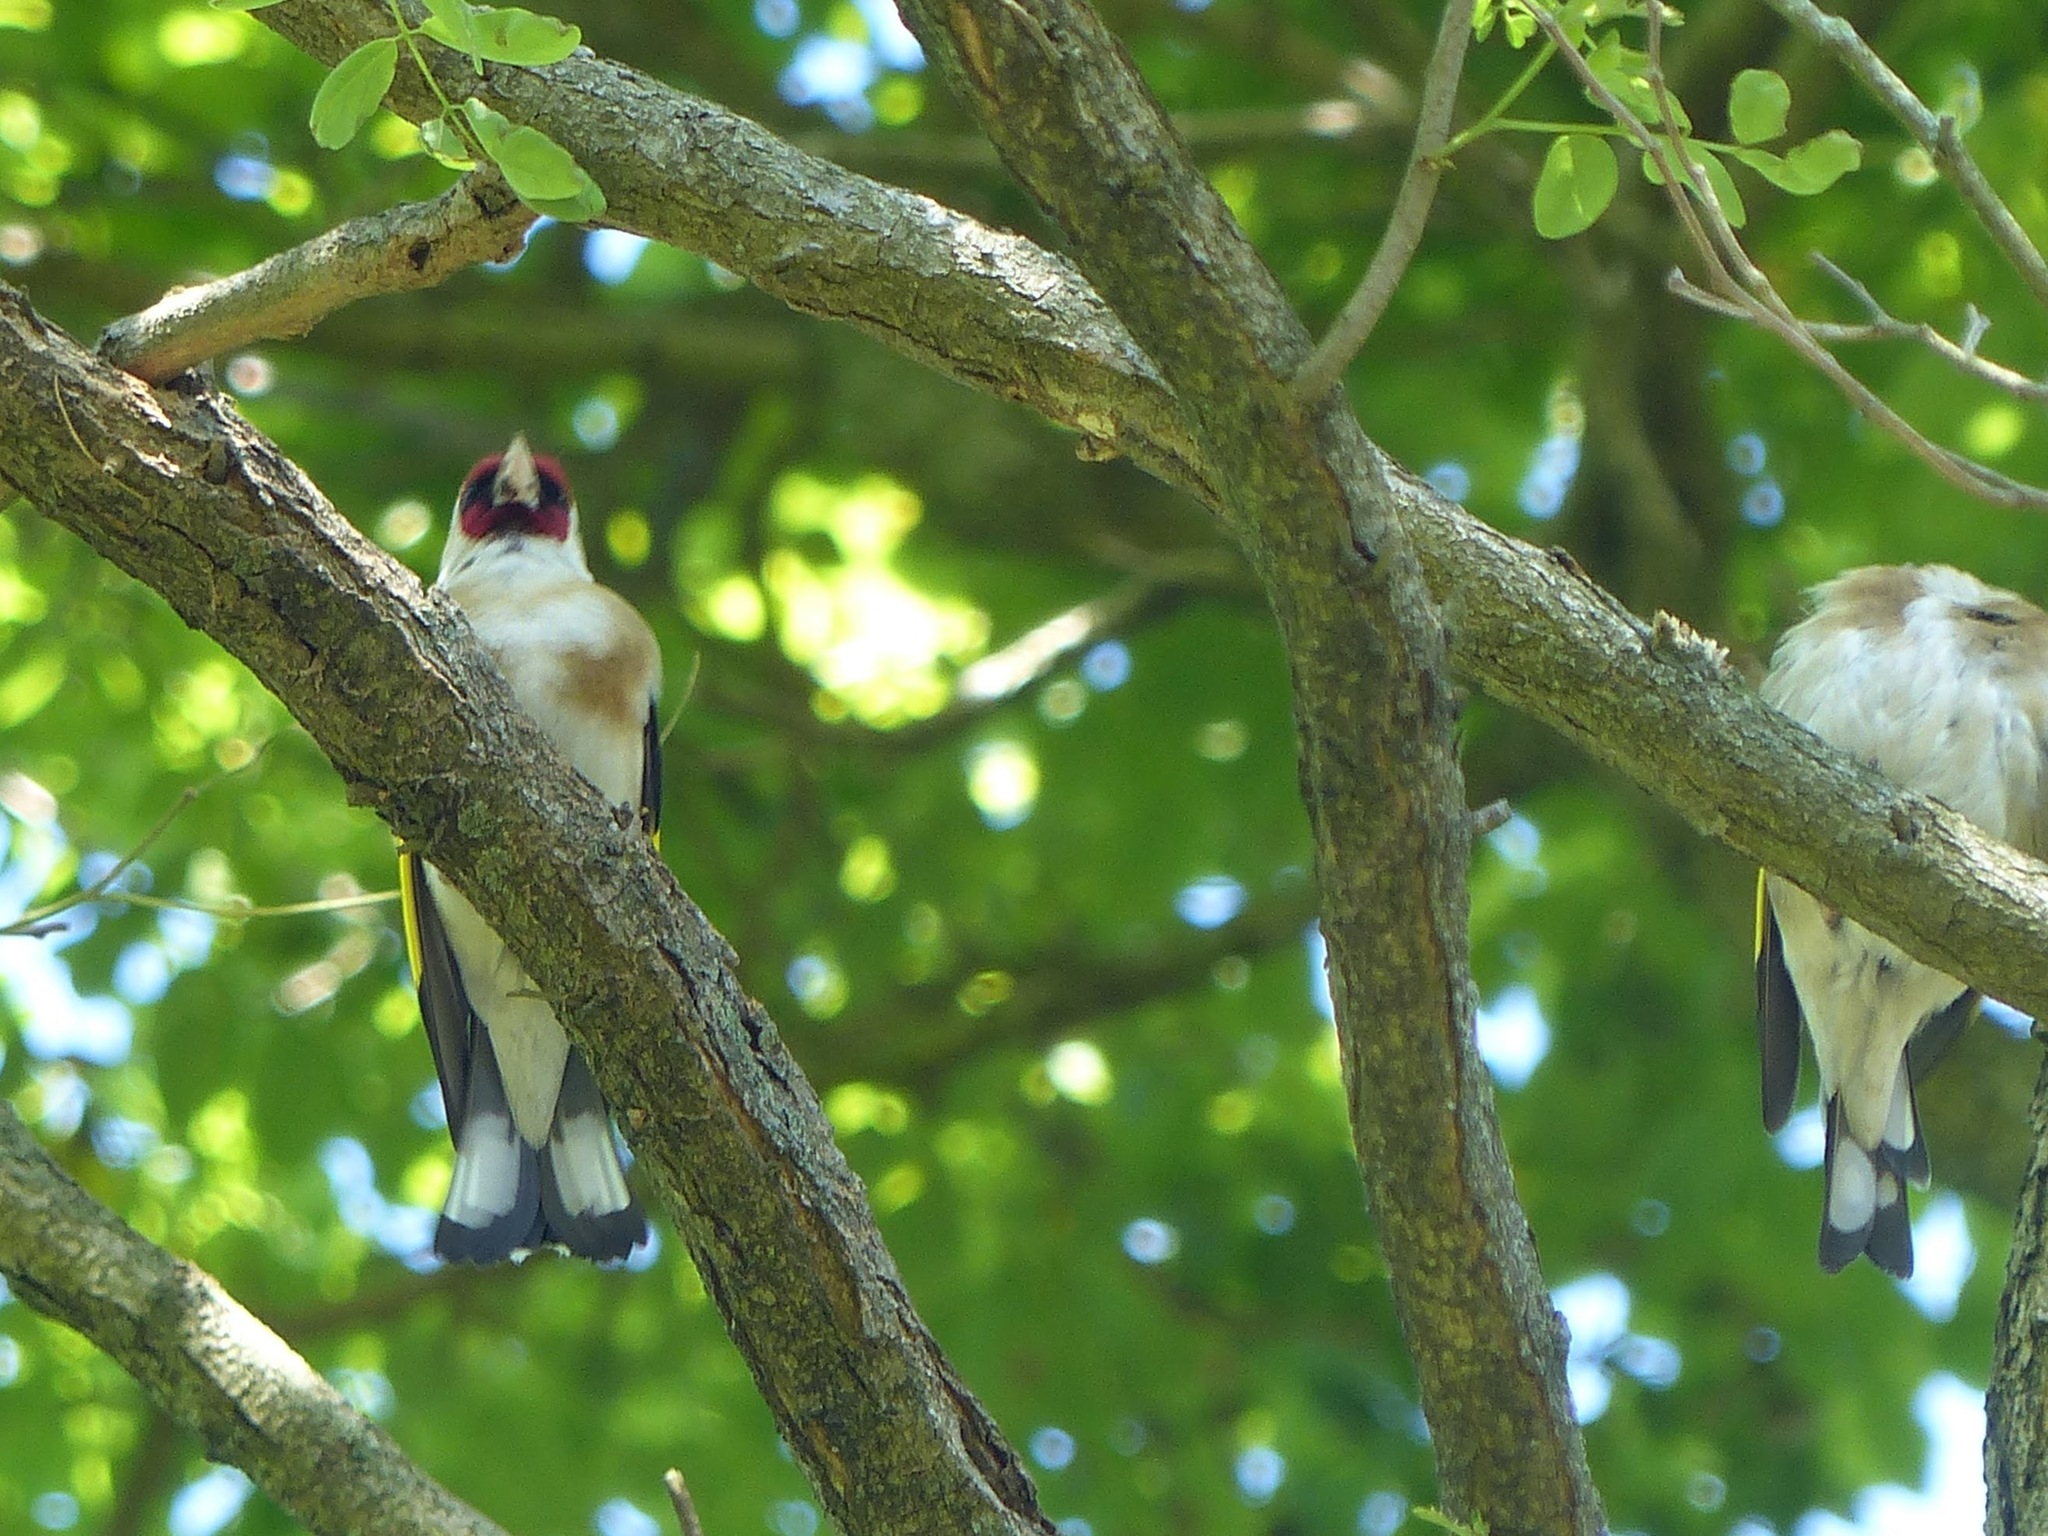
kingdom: Animalia
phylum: Chordata
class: Aves
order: Passeriformes
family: Fringillidae
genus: Carduelis
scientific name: Carduelis carduelis
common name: European goldfinch
